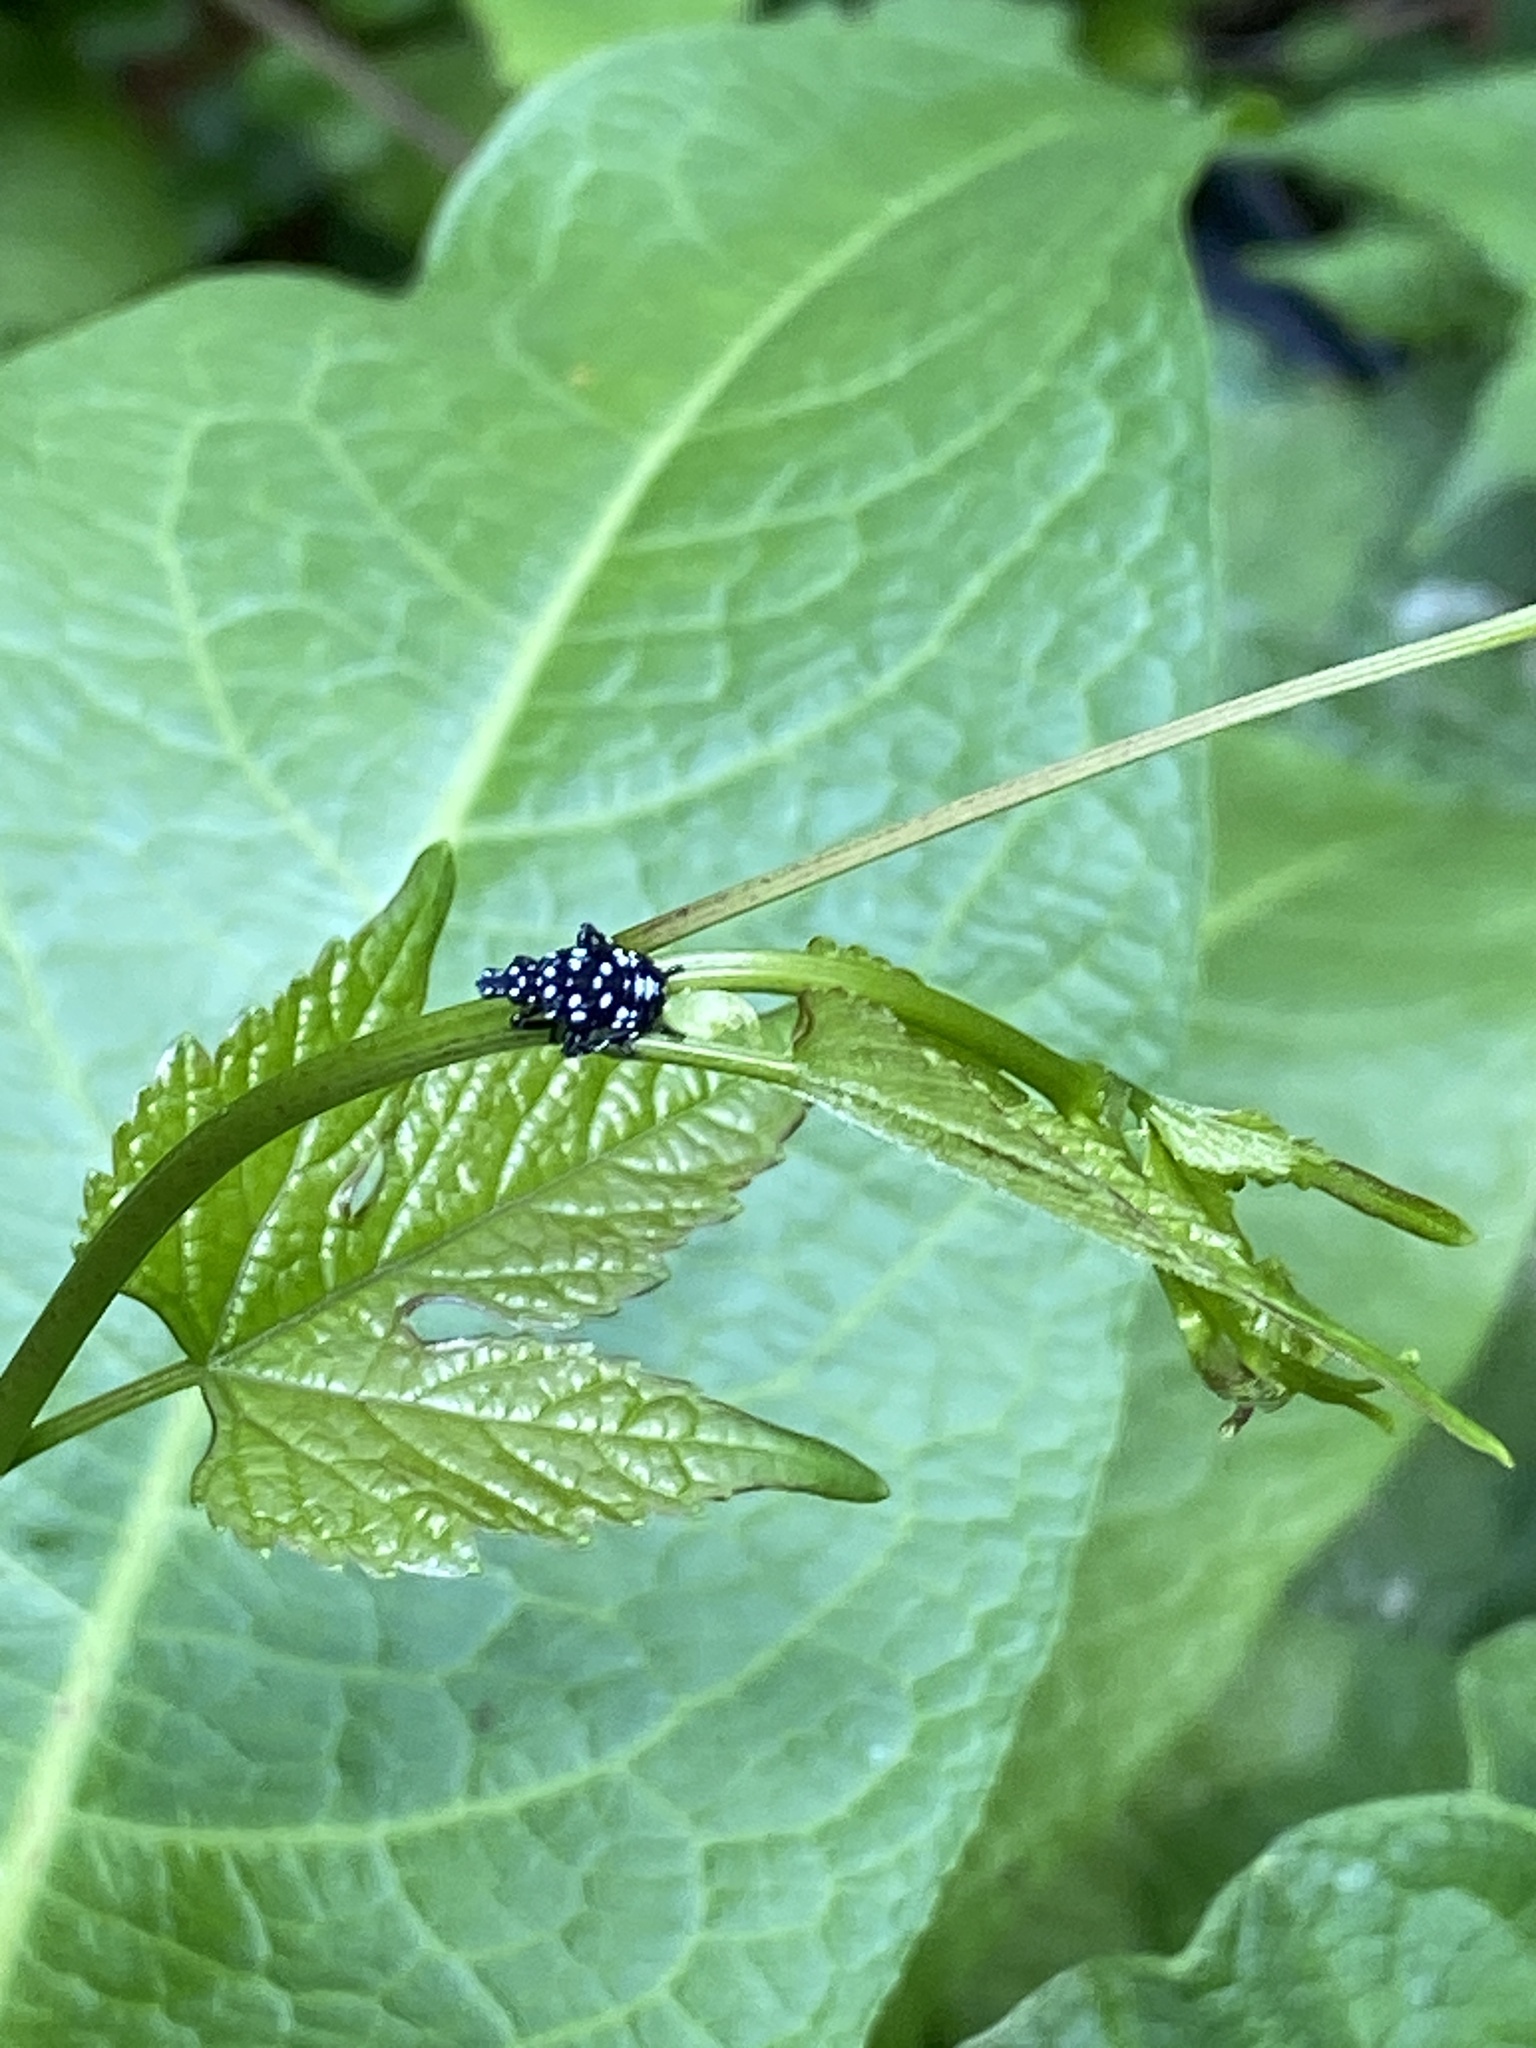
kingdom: Animalia
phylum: Arthropoda
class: Insecta
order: Hemiptera
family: Fulgoridae
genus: Lycorma
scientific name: Lycorma delicatula
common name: Spotted lanternfly
